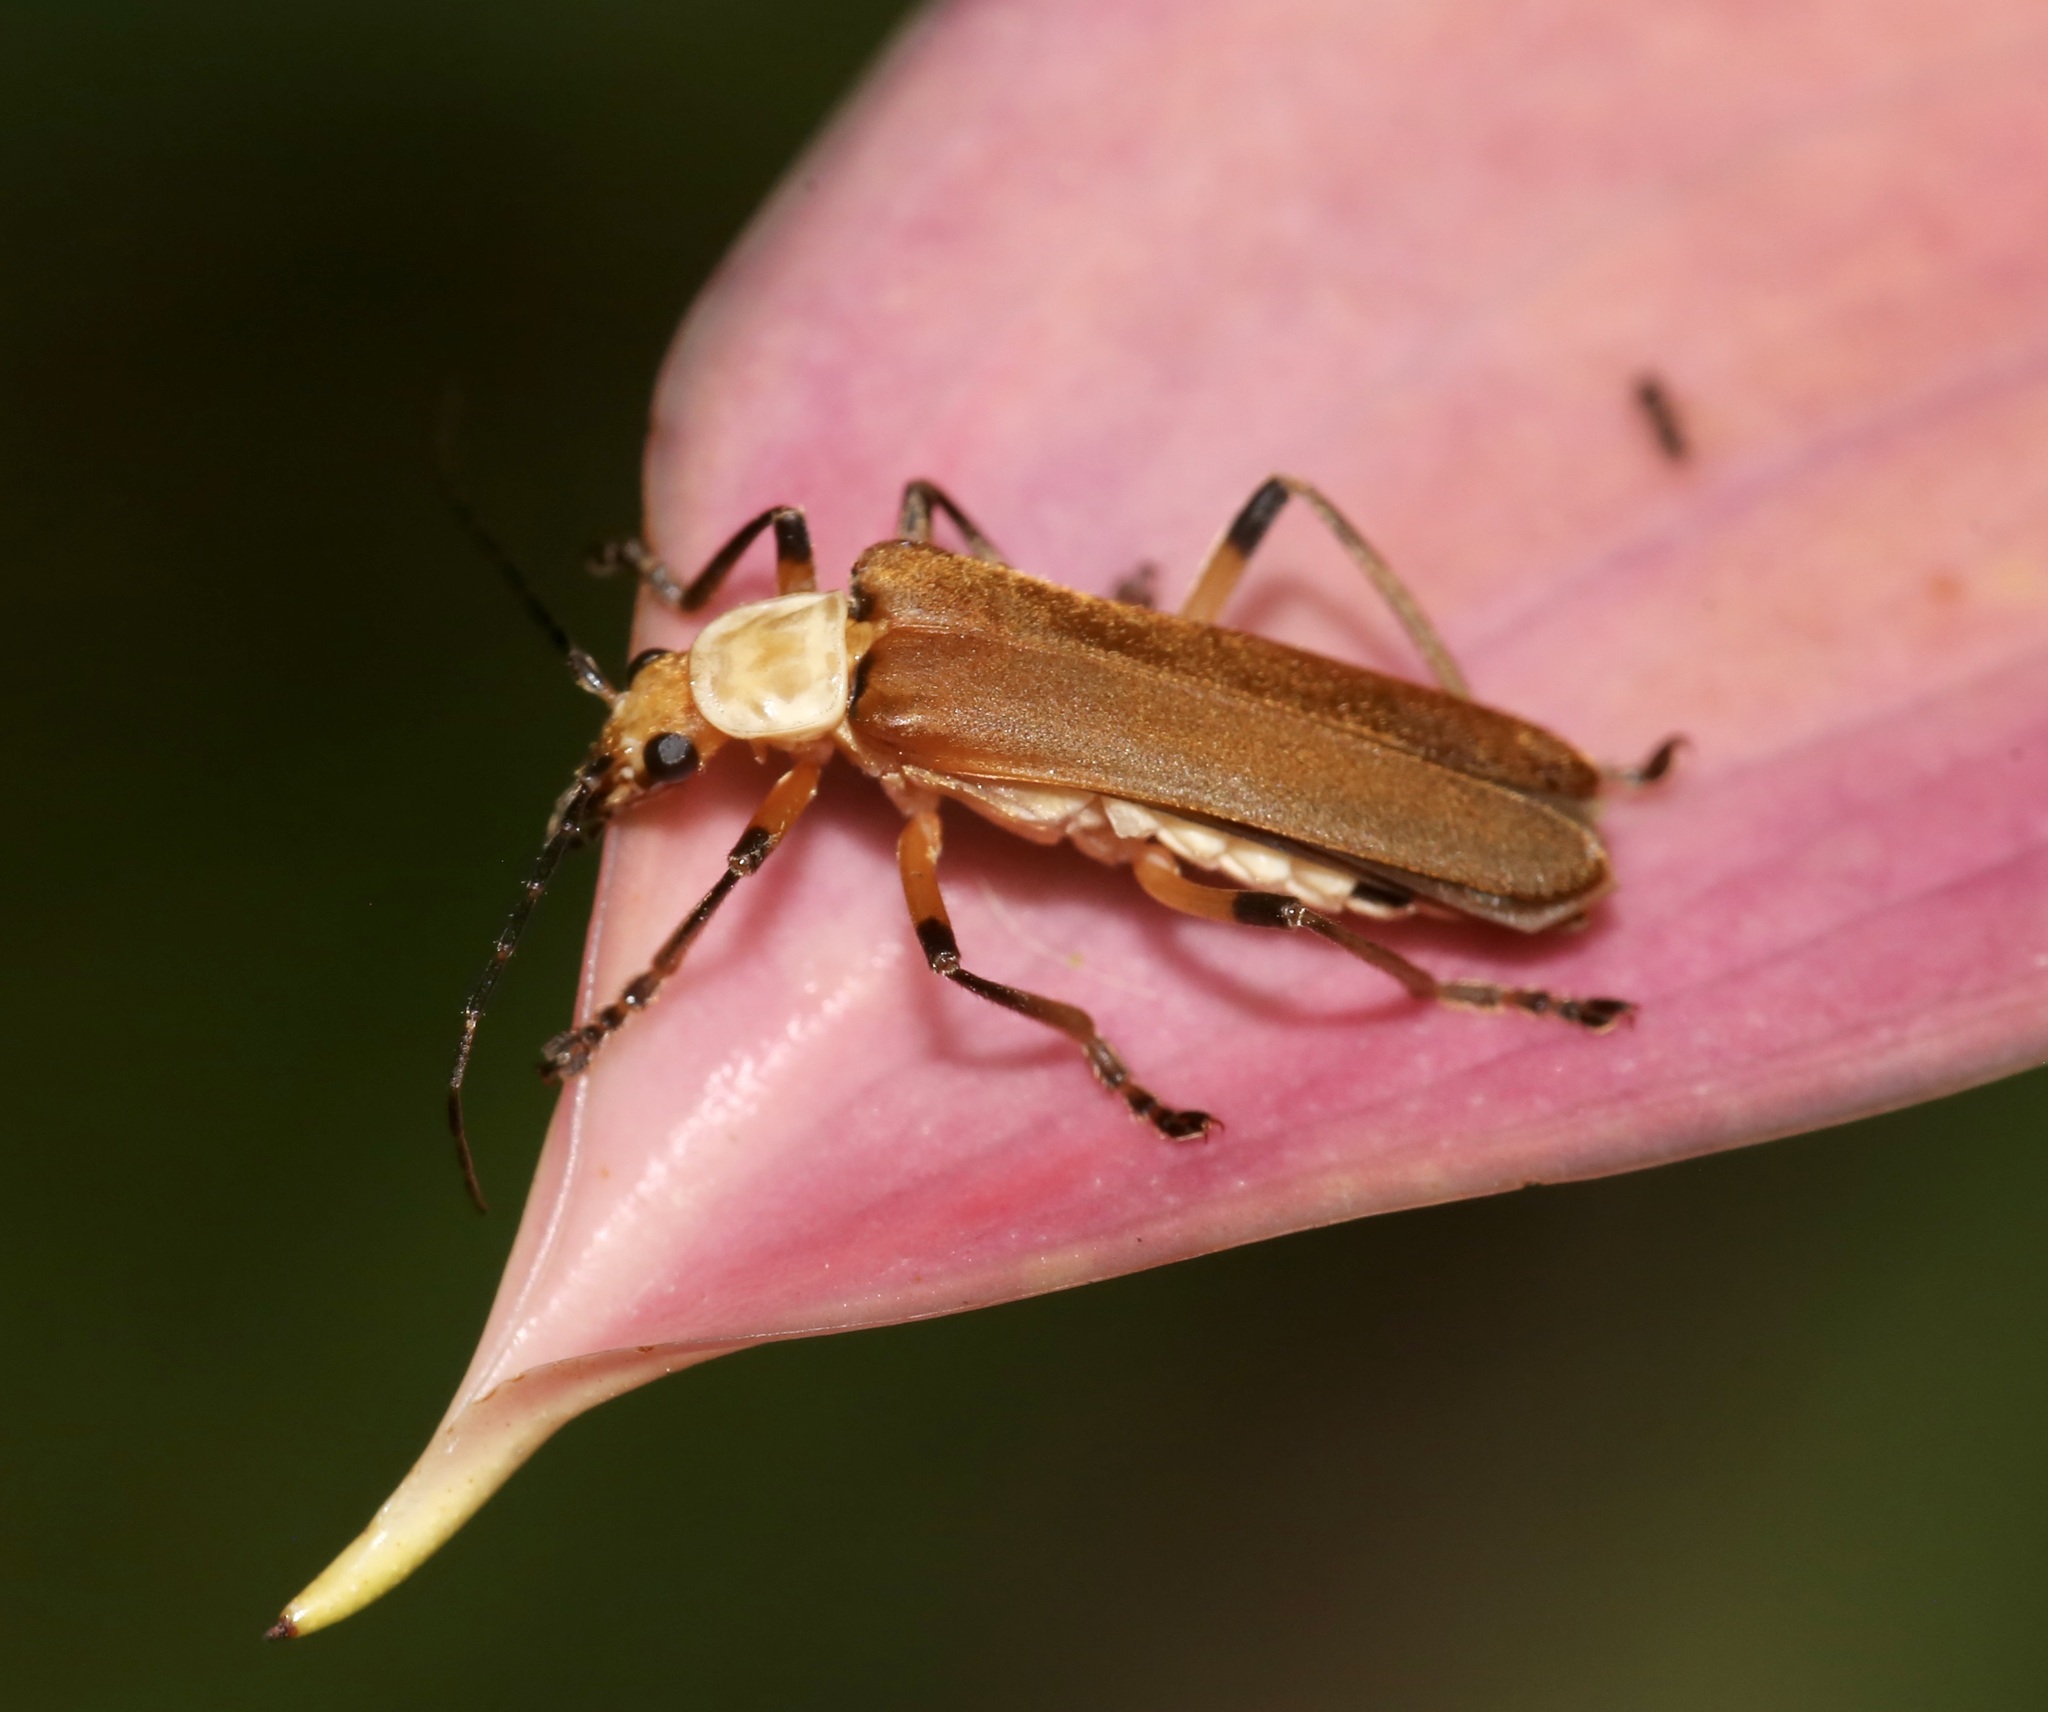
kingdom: Animalia
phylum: Arthropoda
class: Insecta
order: Coleoptera
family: Cantharidae
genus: Chauliognathus
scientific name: Chauliognathus
